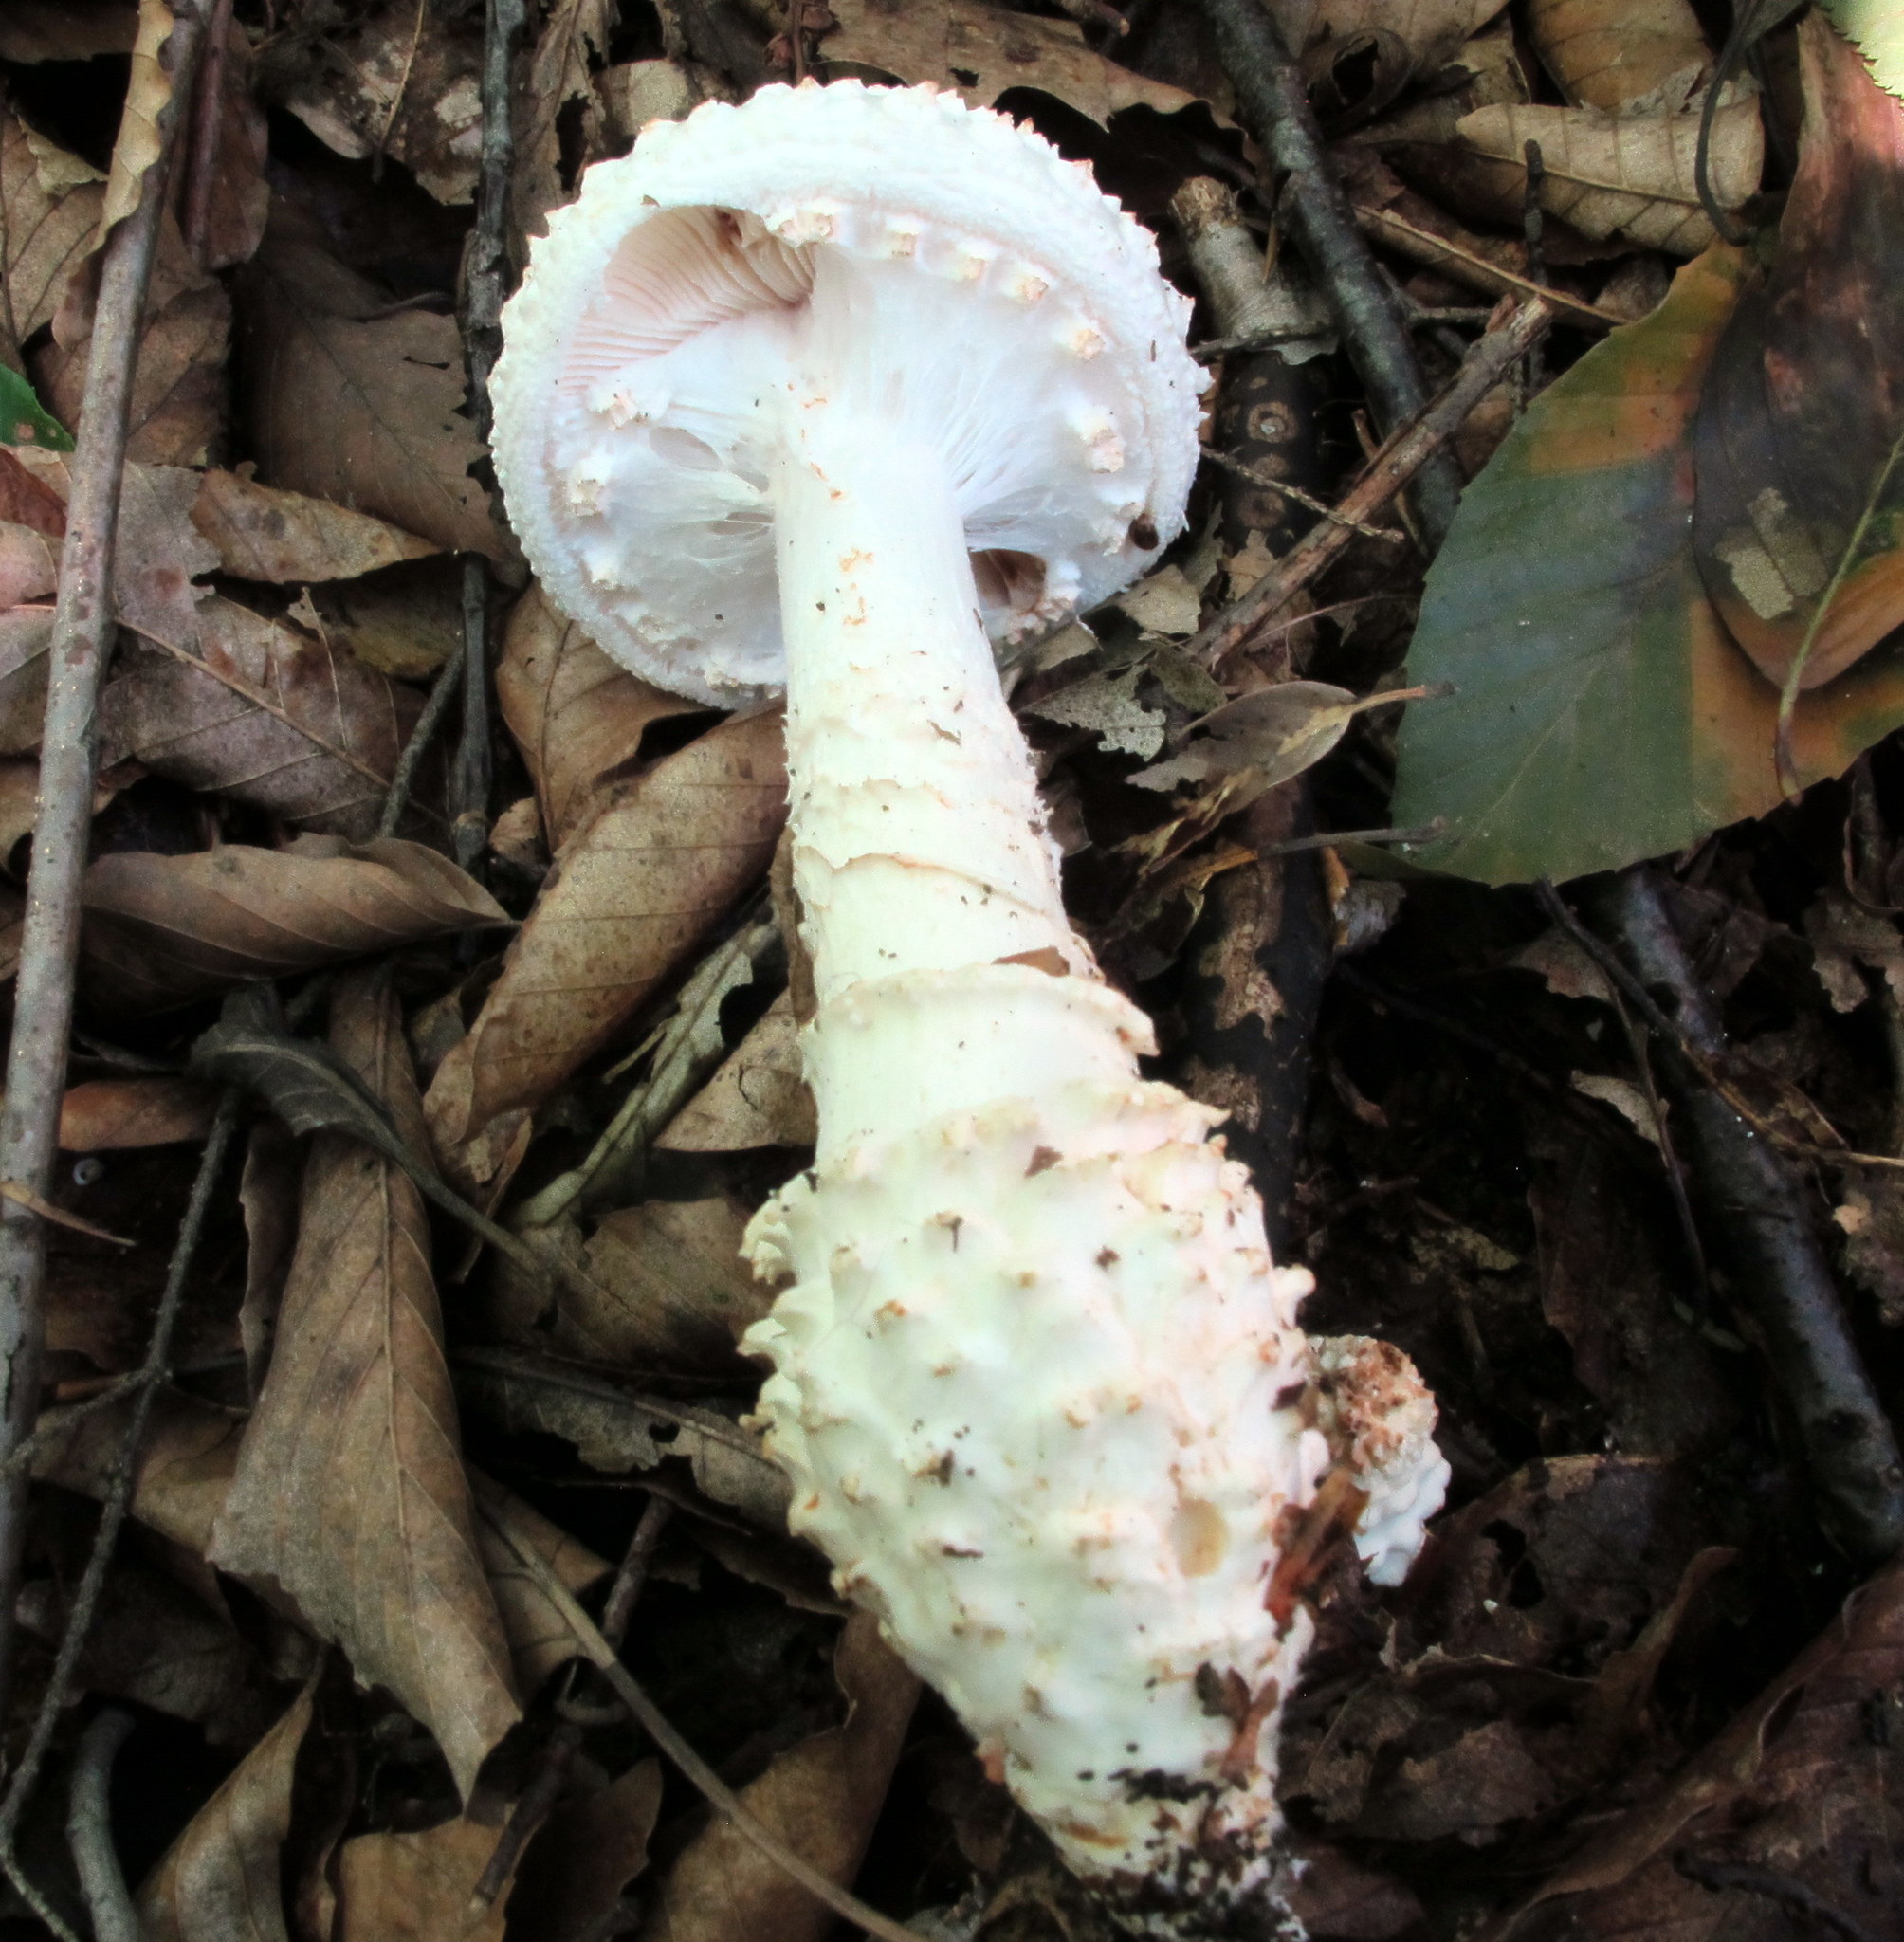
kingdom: Fungi
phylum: Basidiomycota
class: Agaricomycetes
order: Agaricales
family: Amanitaceae
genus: Amanita
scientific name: Amanita cokeri
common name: Coker's amanita
